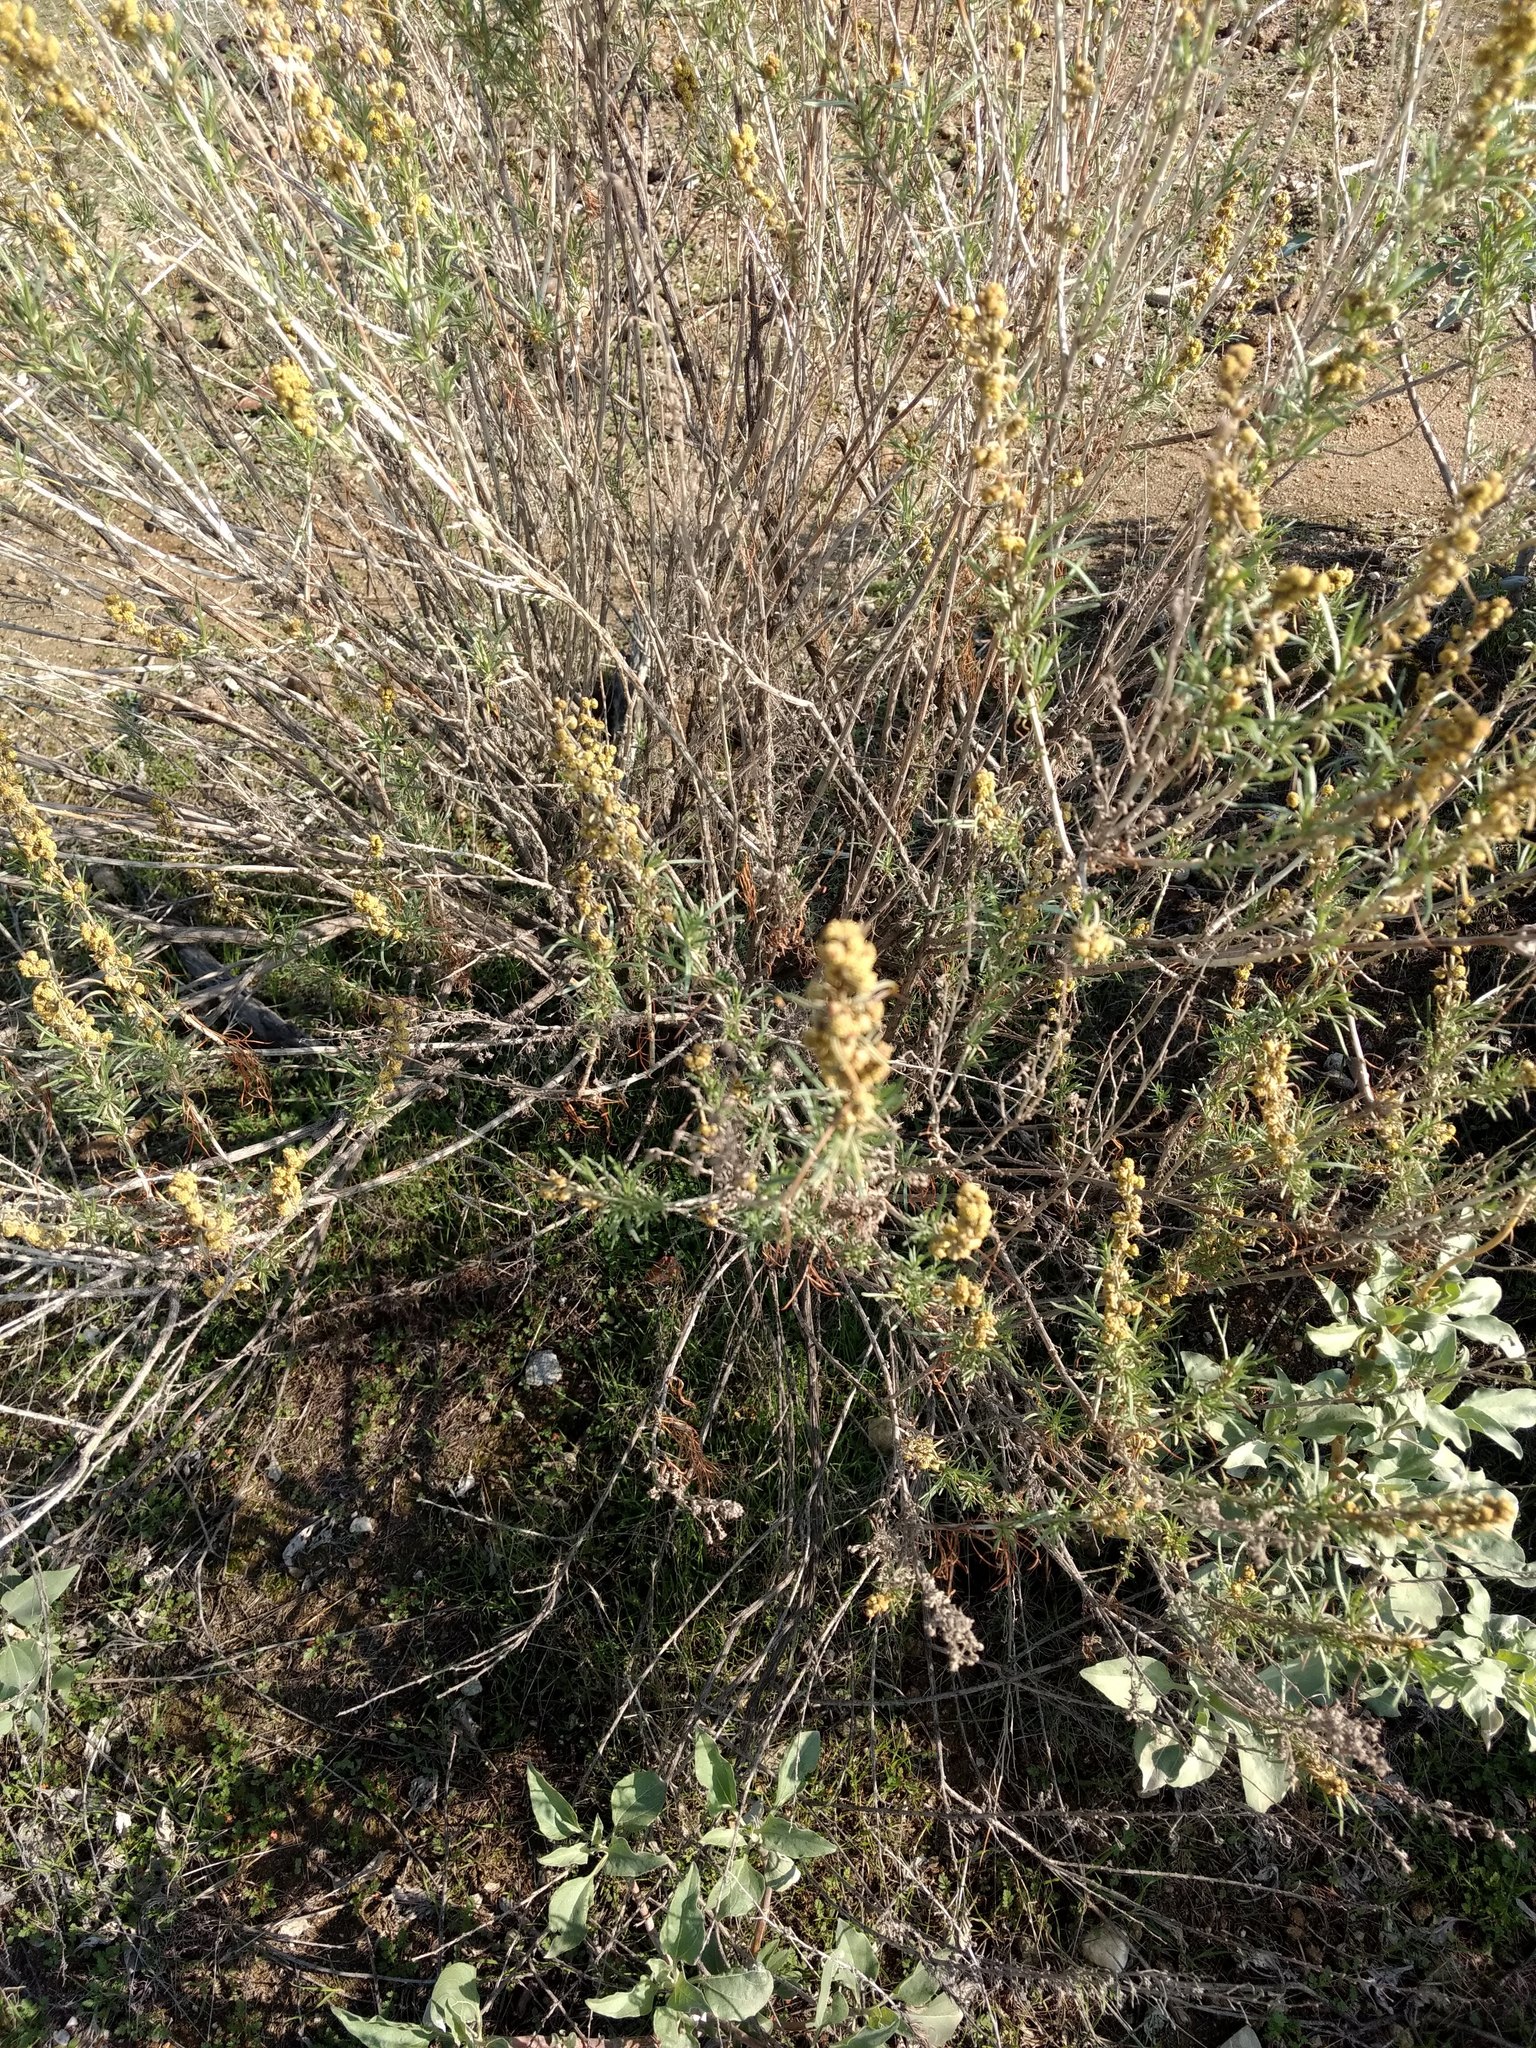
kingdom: Plantae
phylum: Tracheophyta
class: Magnoliopsida
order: Asterales
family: Asteraceae
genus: Artemisia
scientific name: Artemisia californica
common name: California sagebrush
